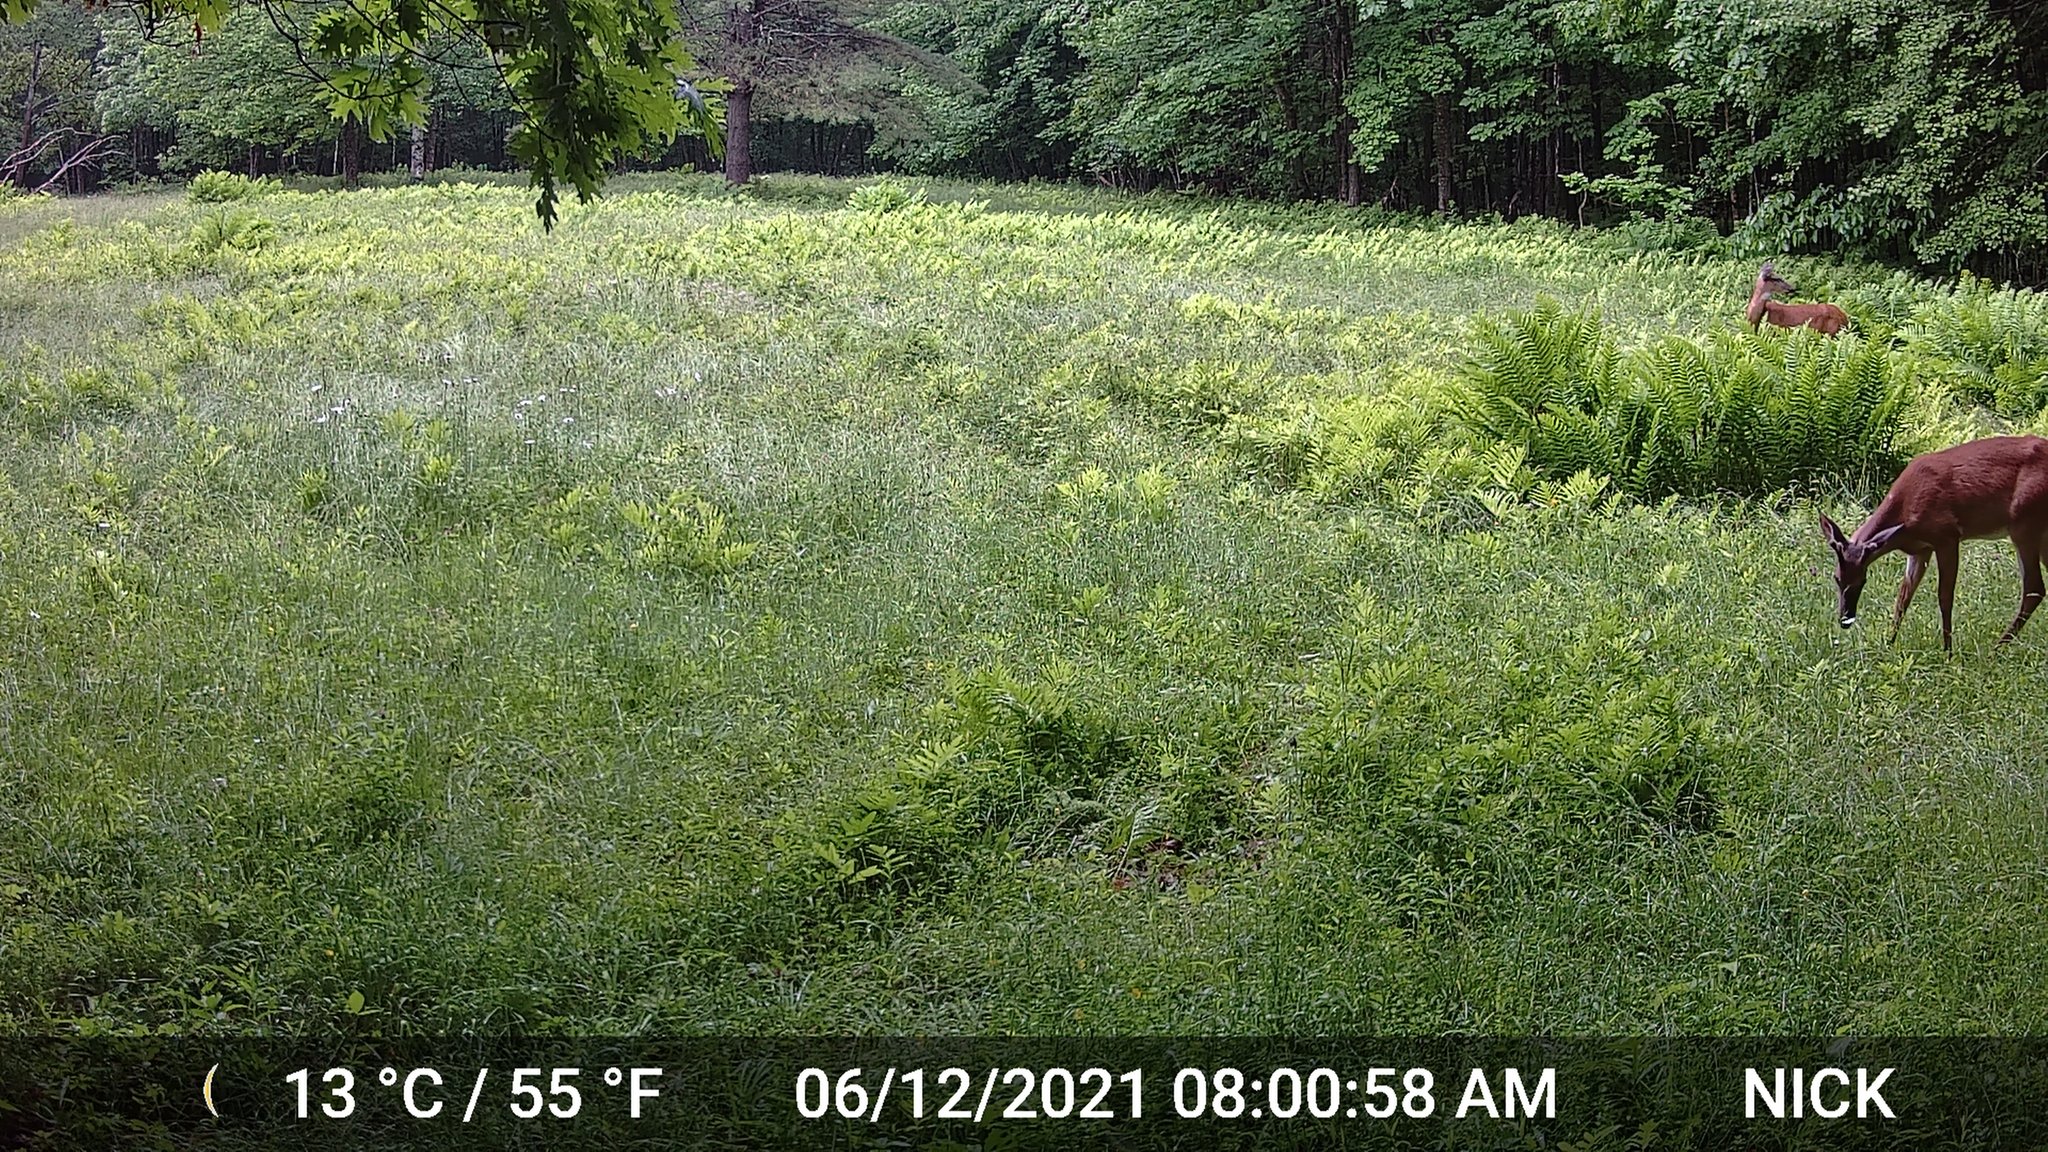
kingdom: Animalia
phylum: Chordata
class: Mammalia
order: Artiodactyla
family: Cervidae
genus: Odocoileus
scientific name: Odocoileus virginianus
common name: White-tailed deer
